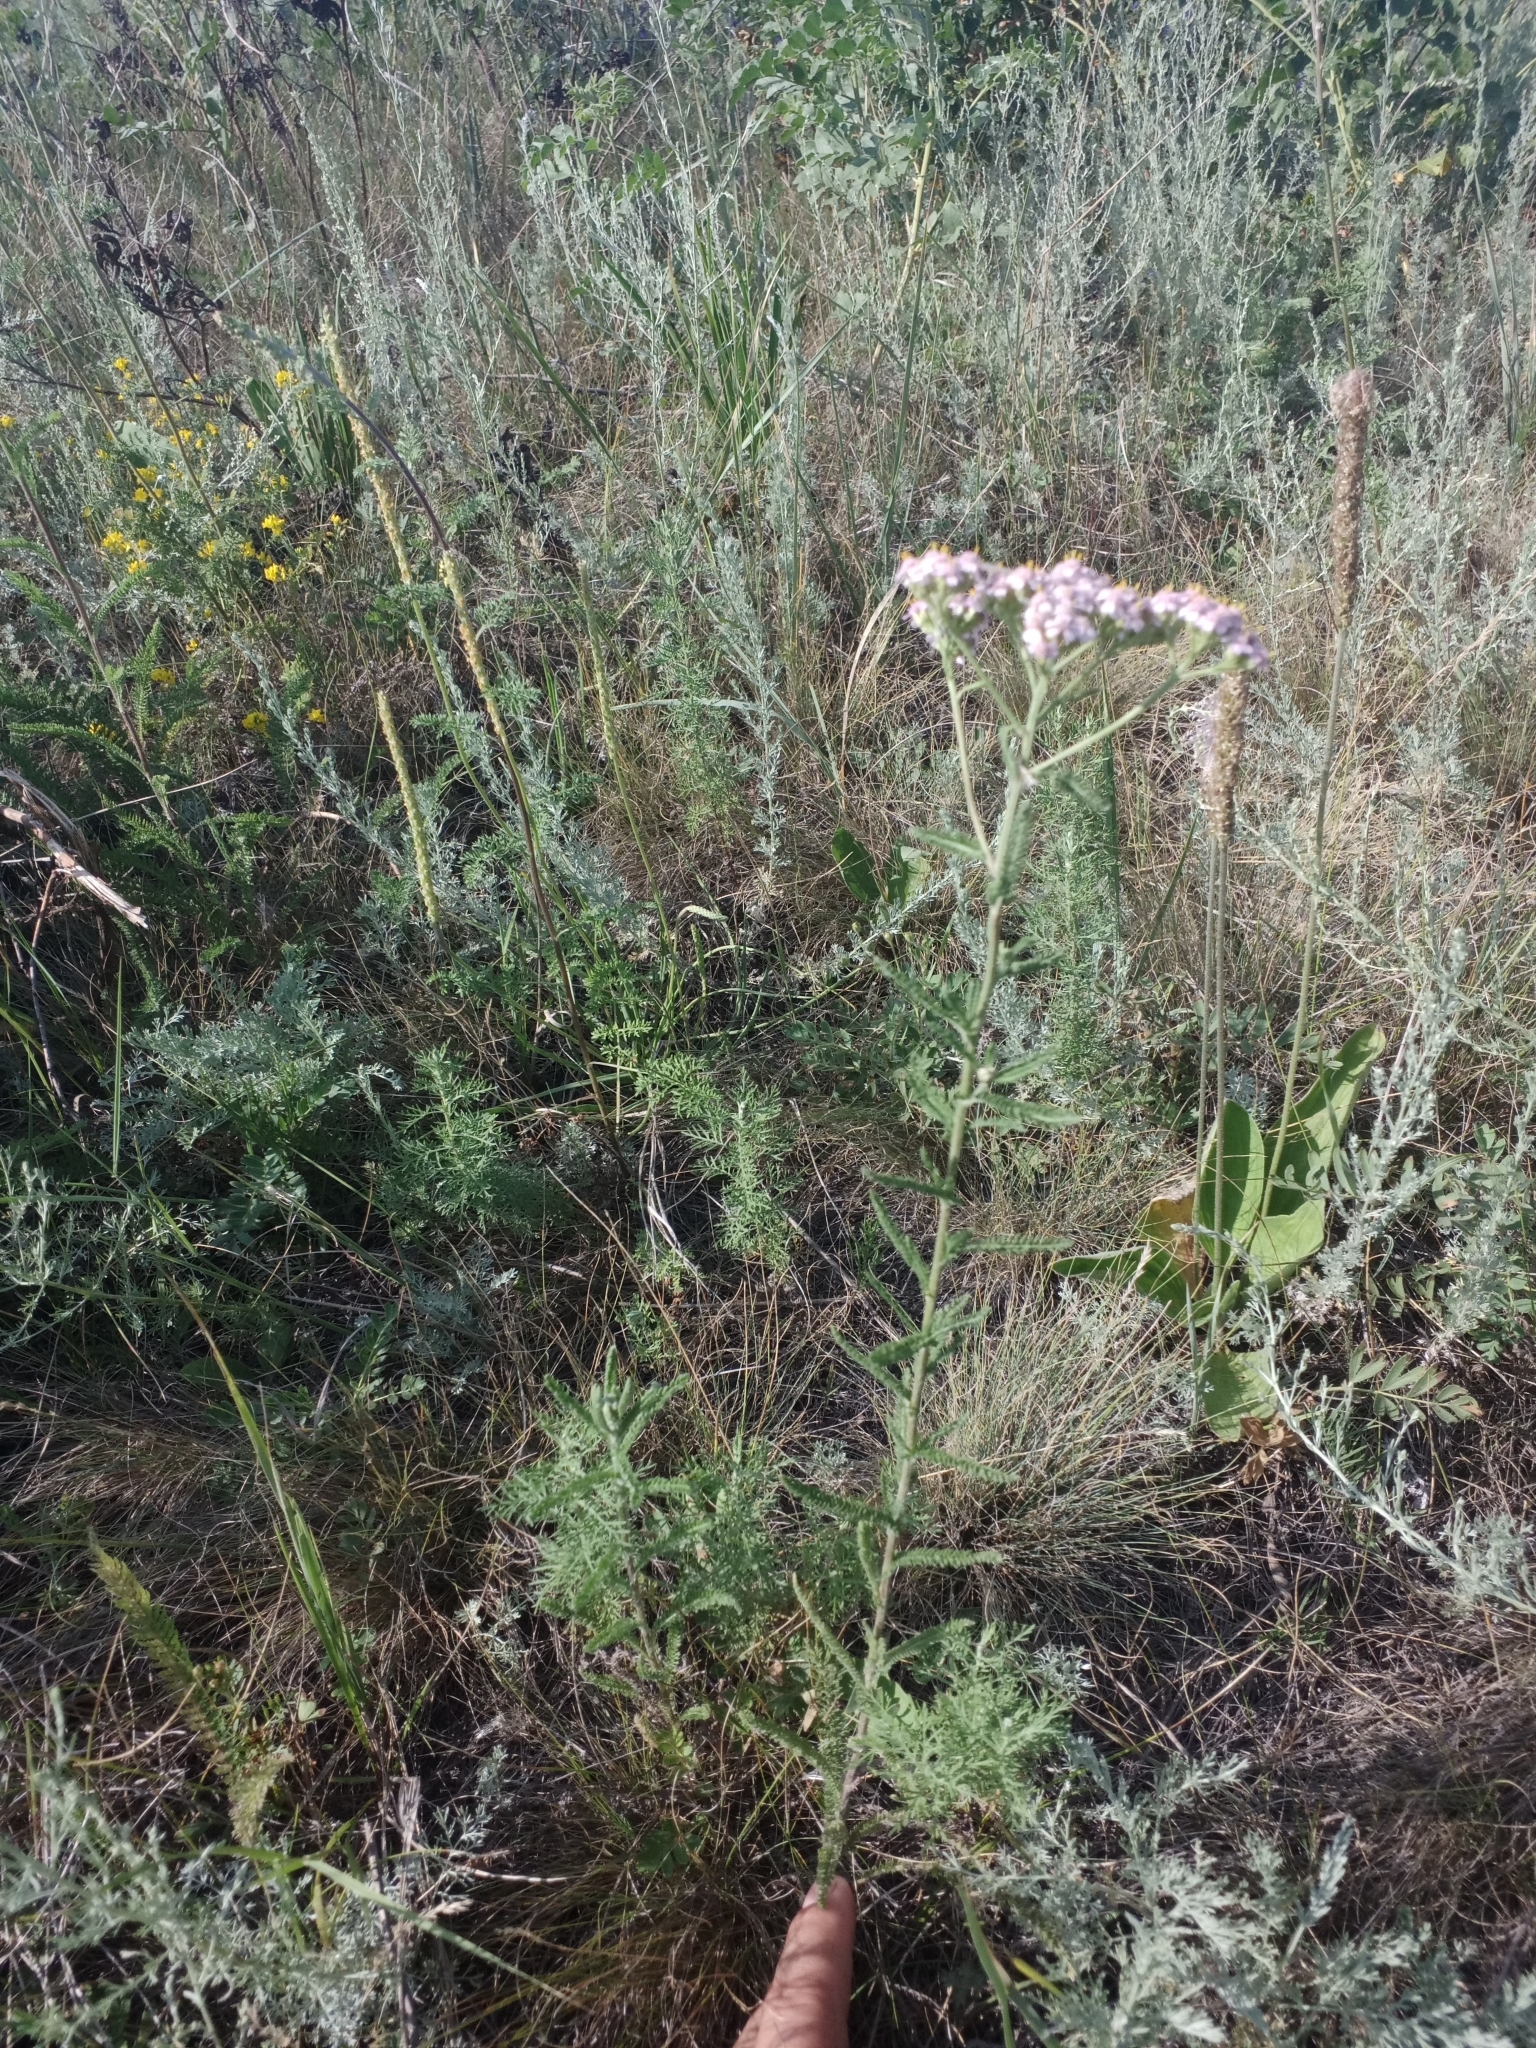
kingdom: Plantae
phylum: Tracheophyta
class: Magnoliopsida
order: Asterales
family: Asteraceae
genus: Achillea
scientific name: Achillea asiatica
